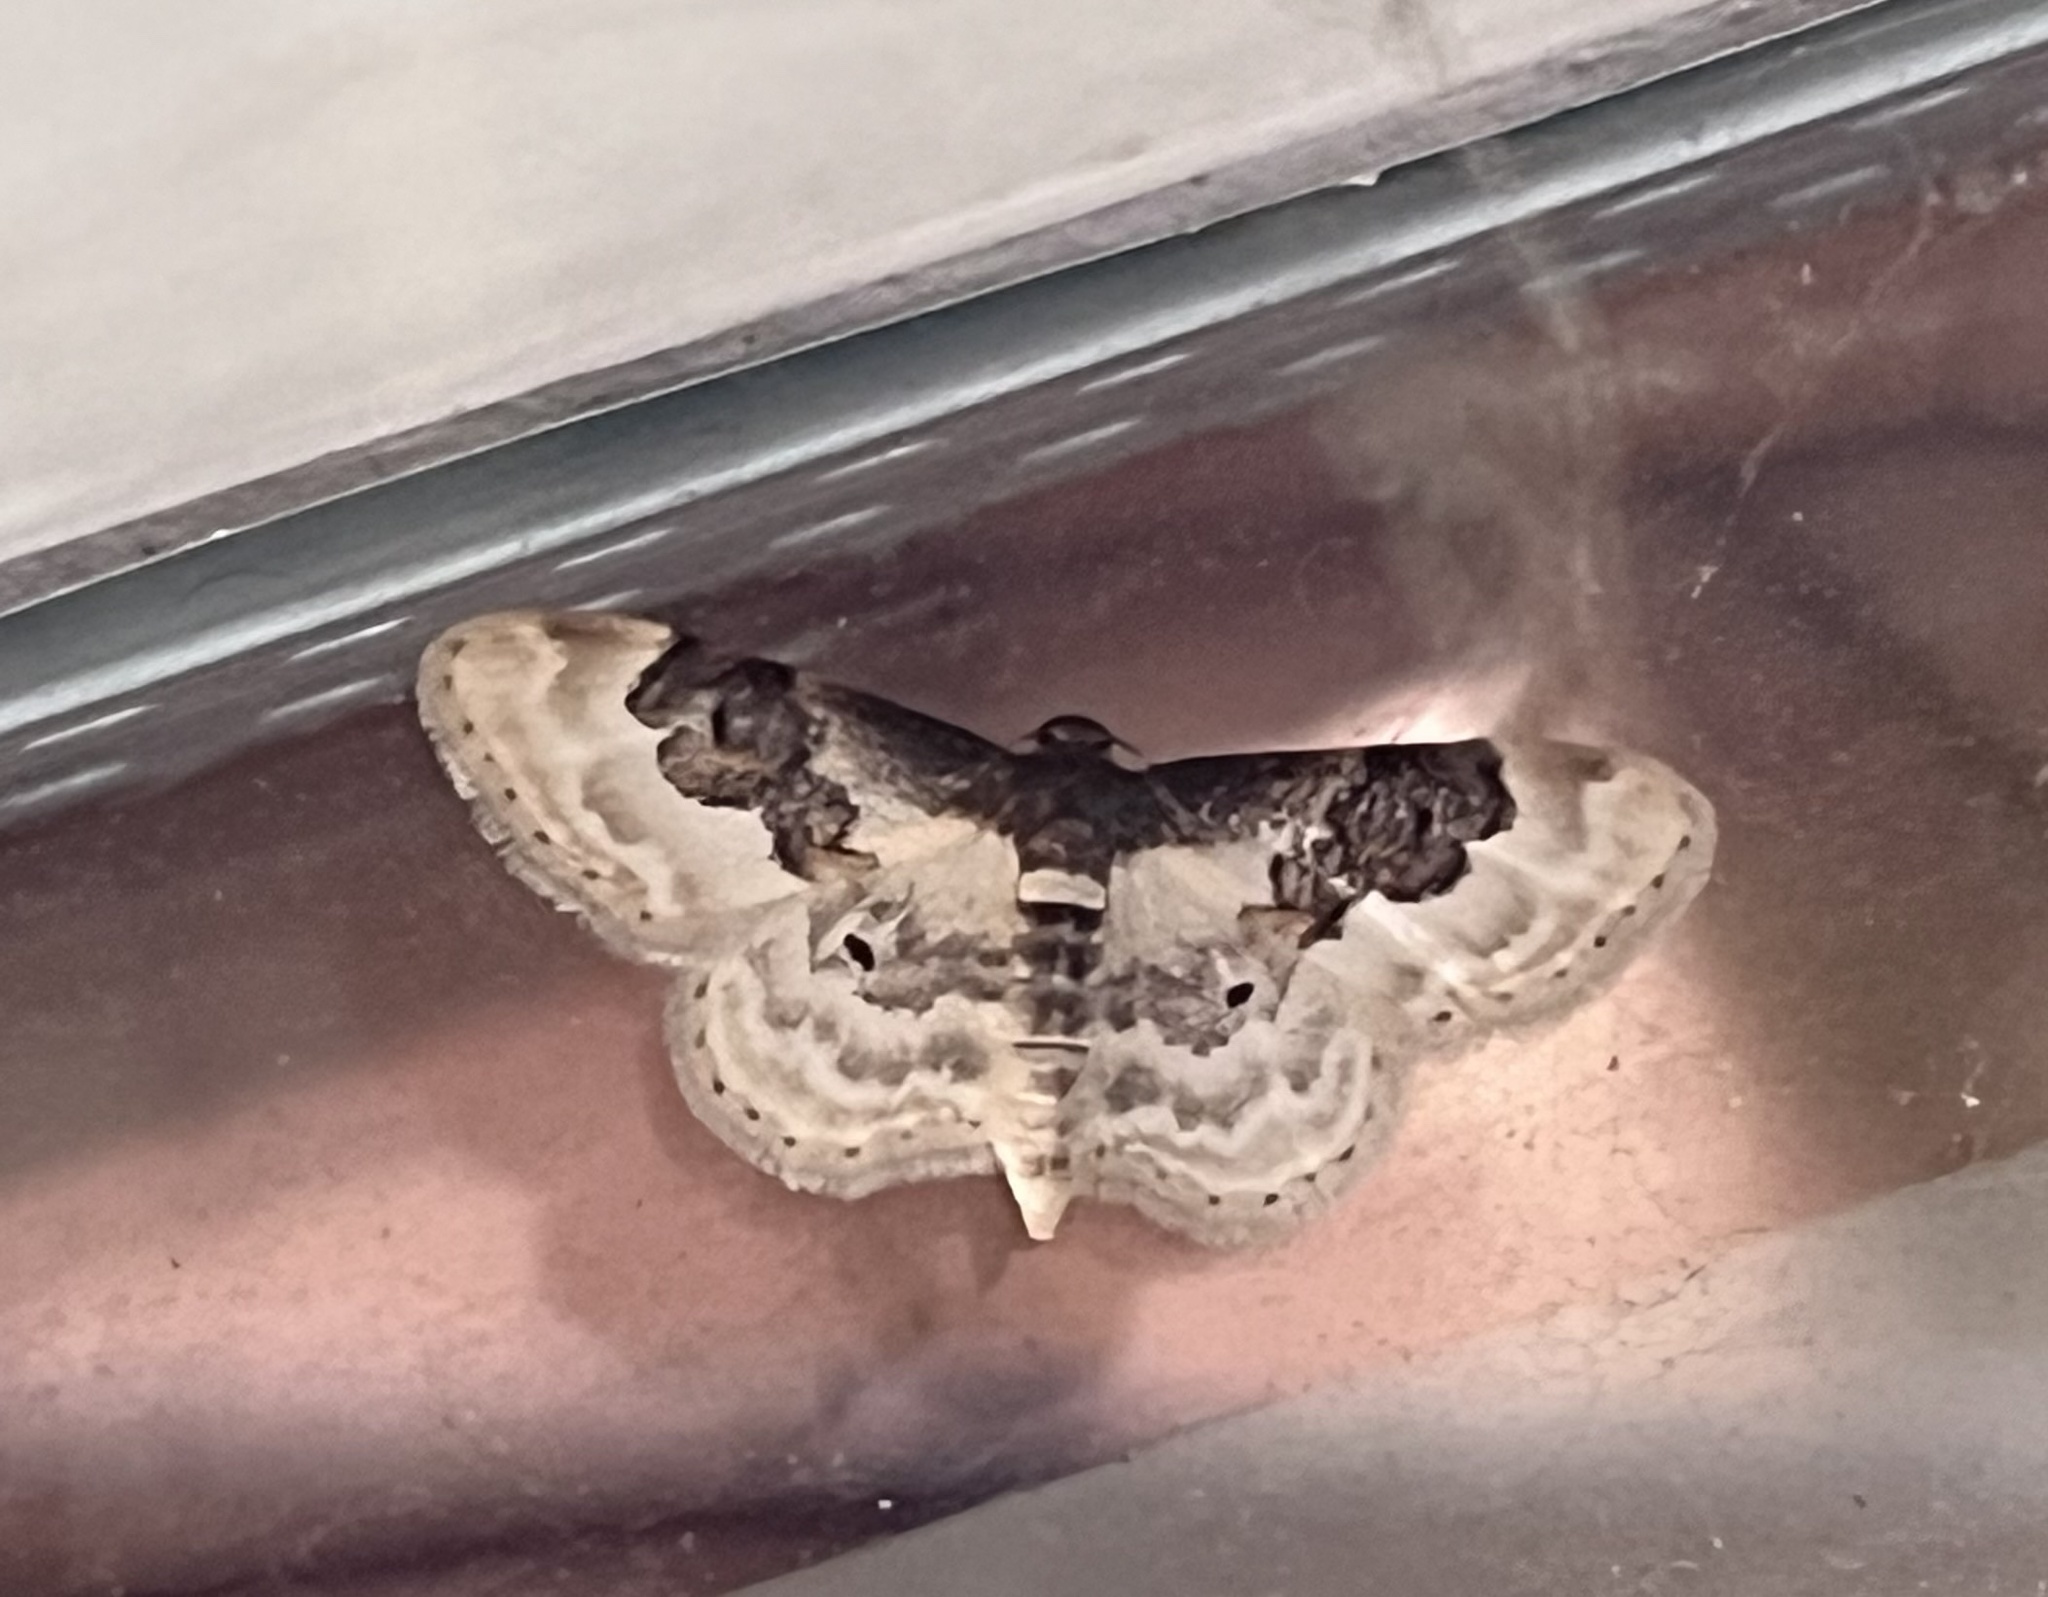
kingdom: Animalia
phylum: Arthropoda
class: Insecta
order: Lepidoptera
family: Geometridae
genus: Idaea
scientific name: Idaea rusticata
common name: Least carpet
